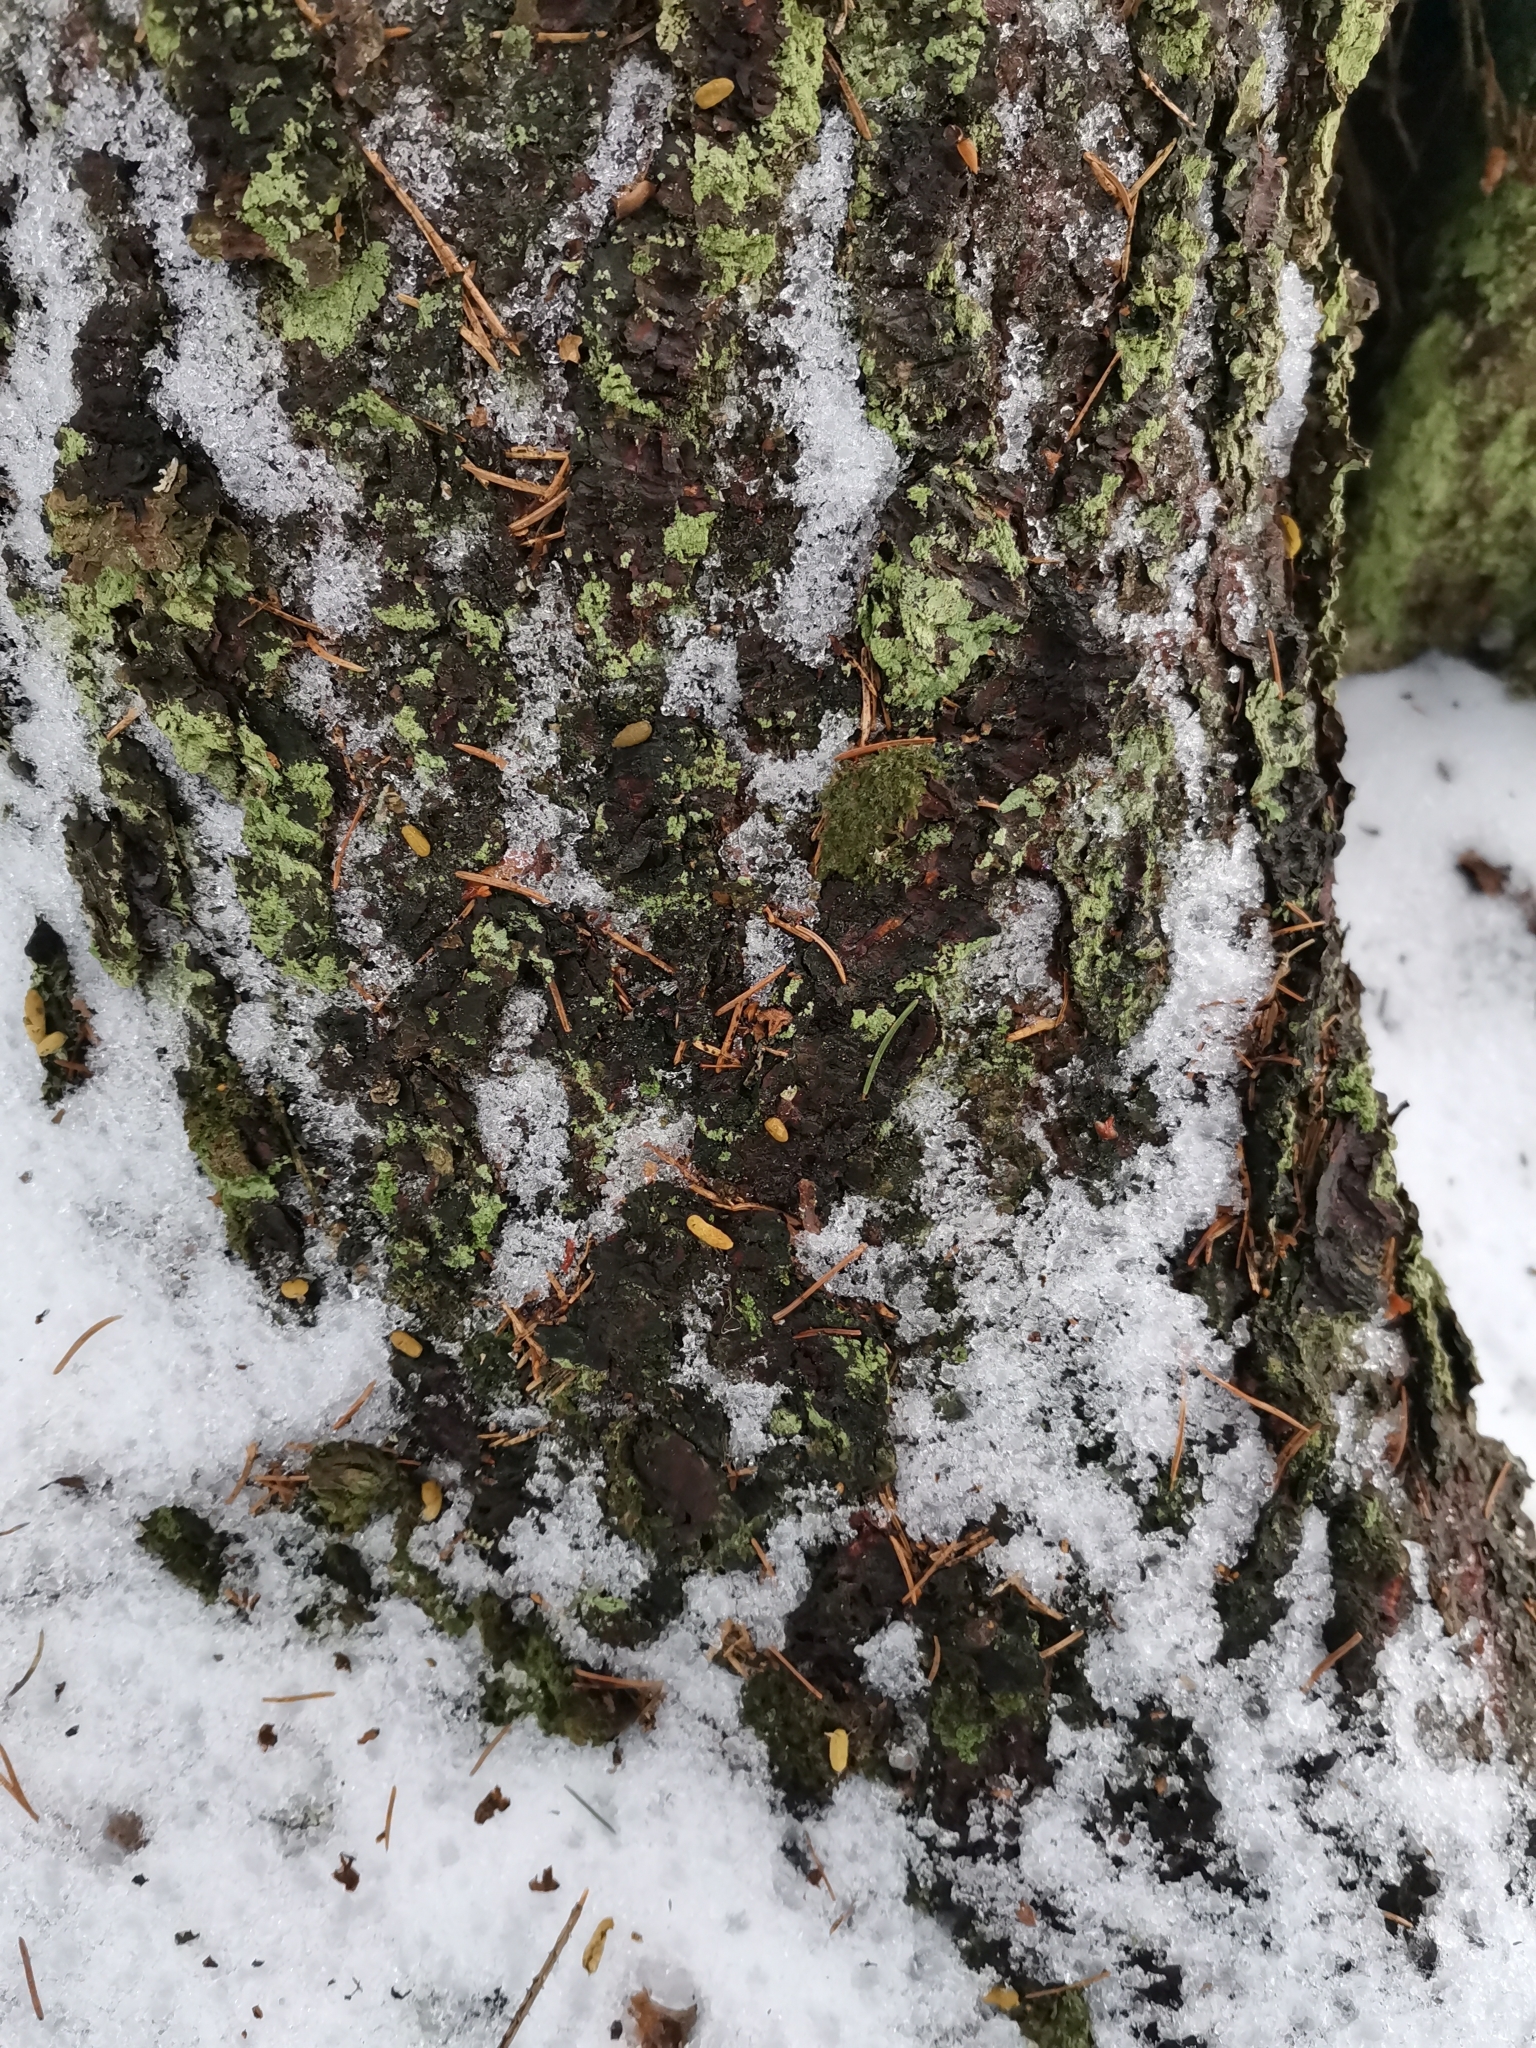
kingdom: Animalia
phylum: Chordata
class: Mammalia
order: Rodentia
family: Sciuridae
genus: Pteromys
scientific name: Pteromys volans
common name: Siberian flying squirrel
